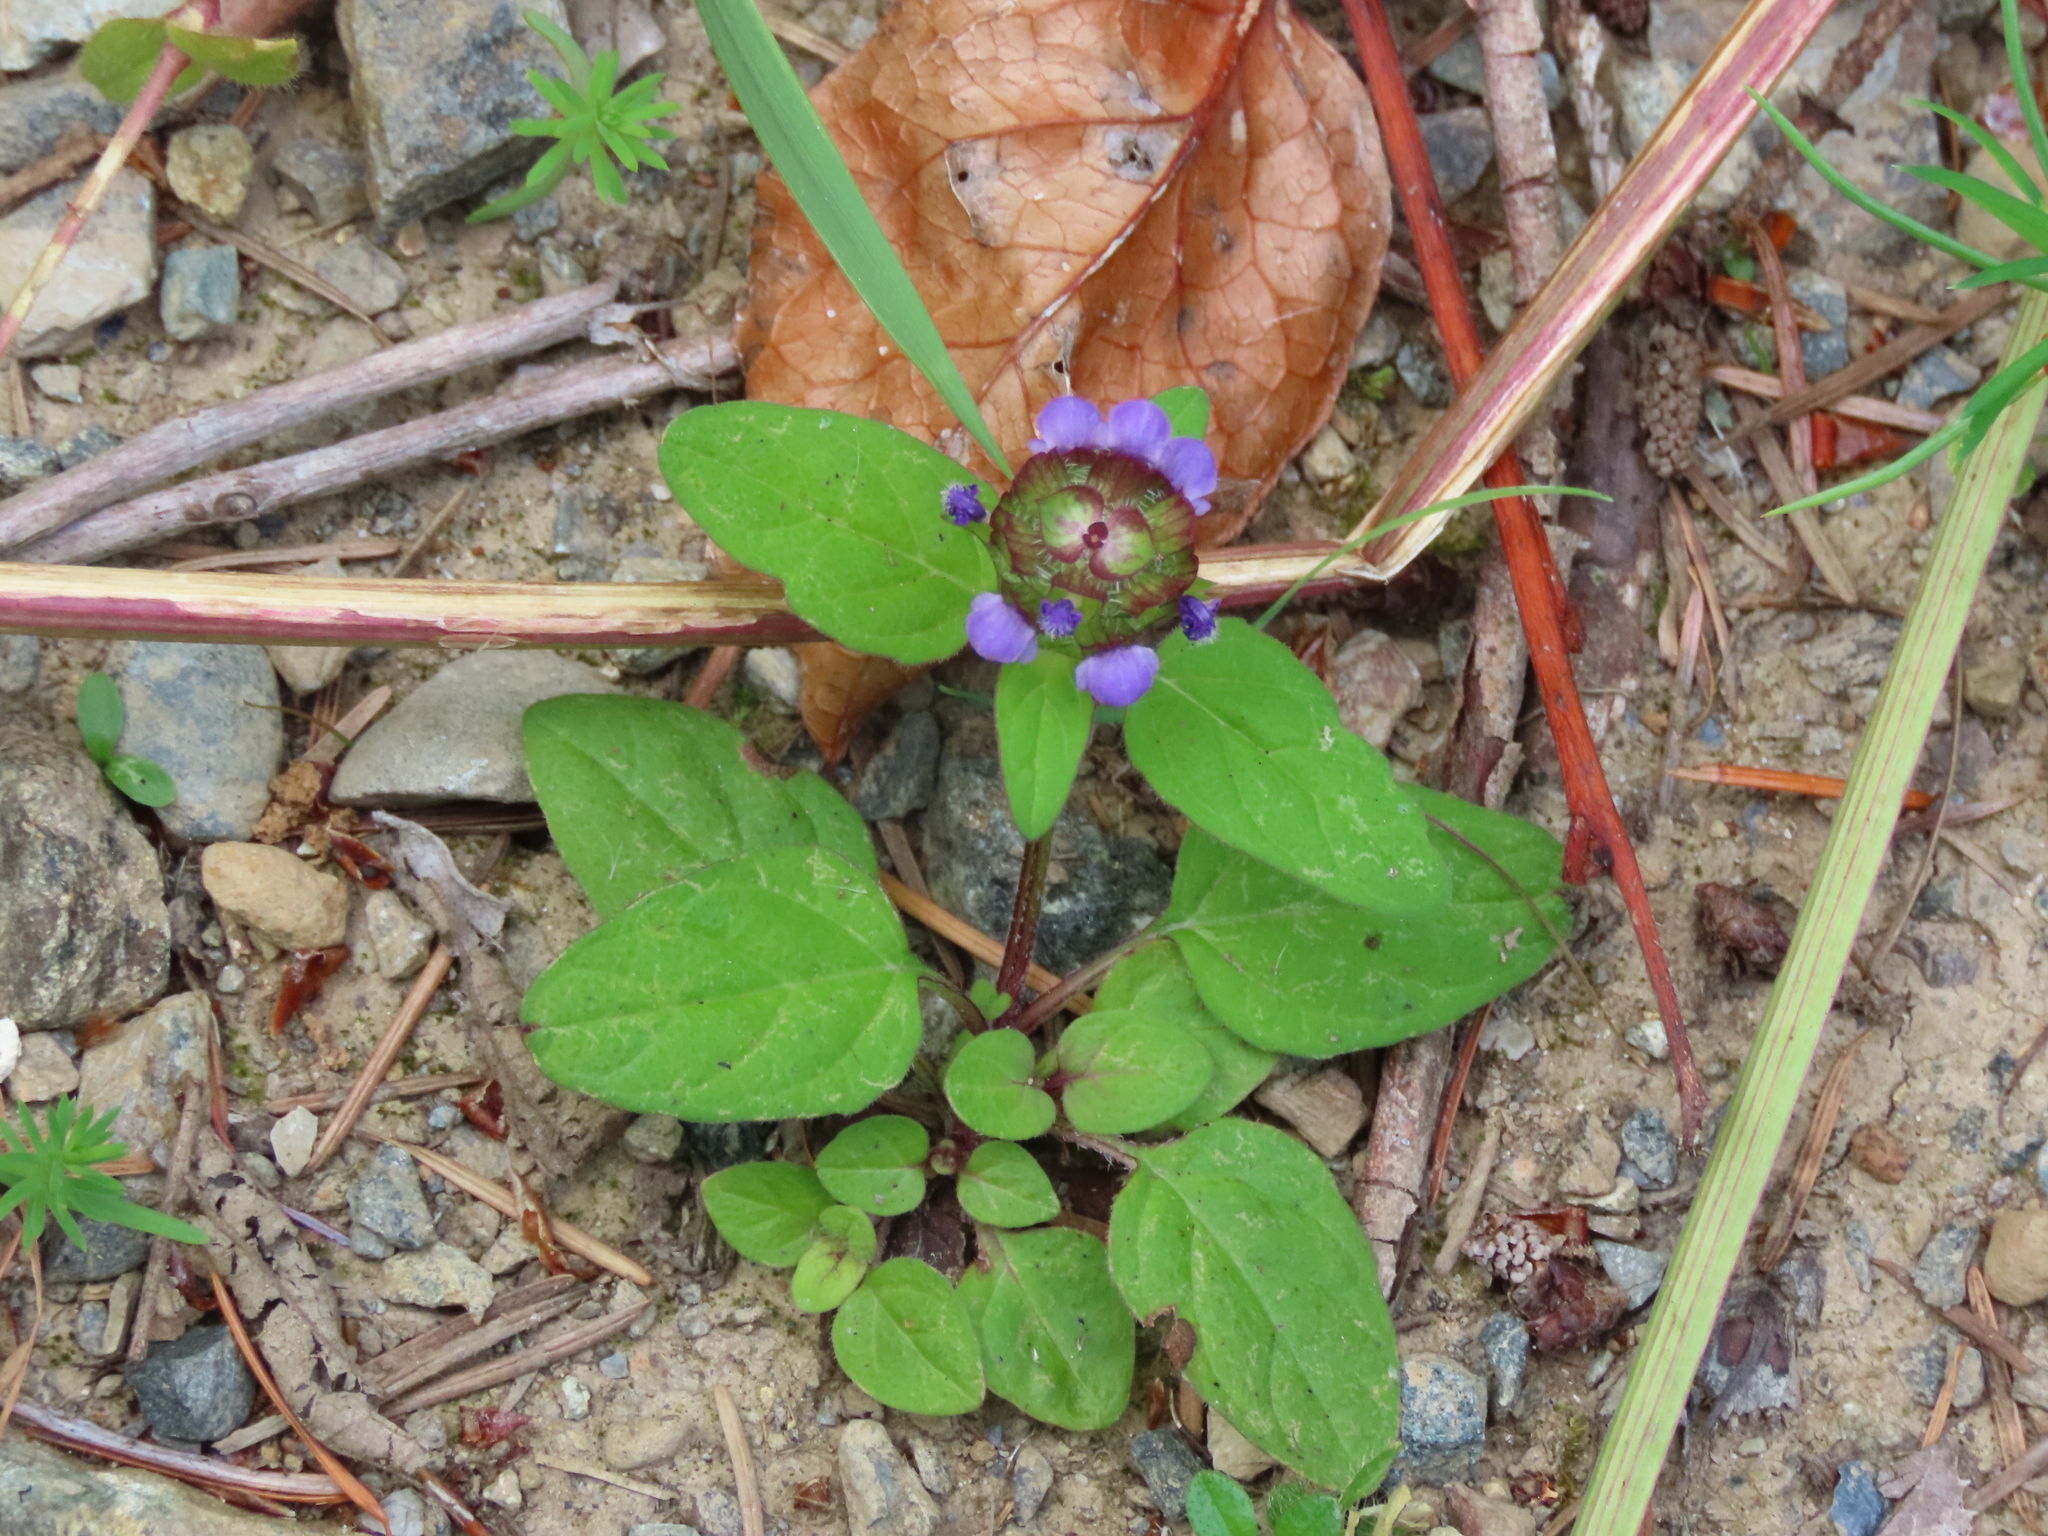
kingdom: Plantae
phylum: Tracheophyta
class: Magnoliopsida
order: Lamiales
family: Lamiaceae
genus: Prunella
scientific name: Prunella vulgaris
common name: Heal-all
